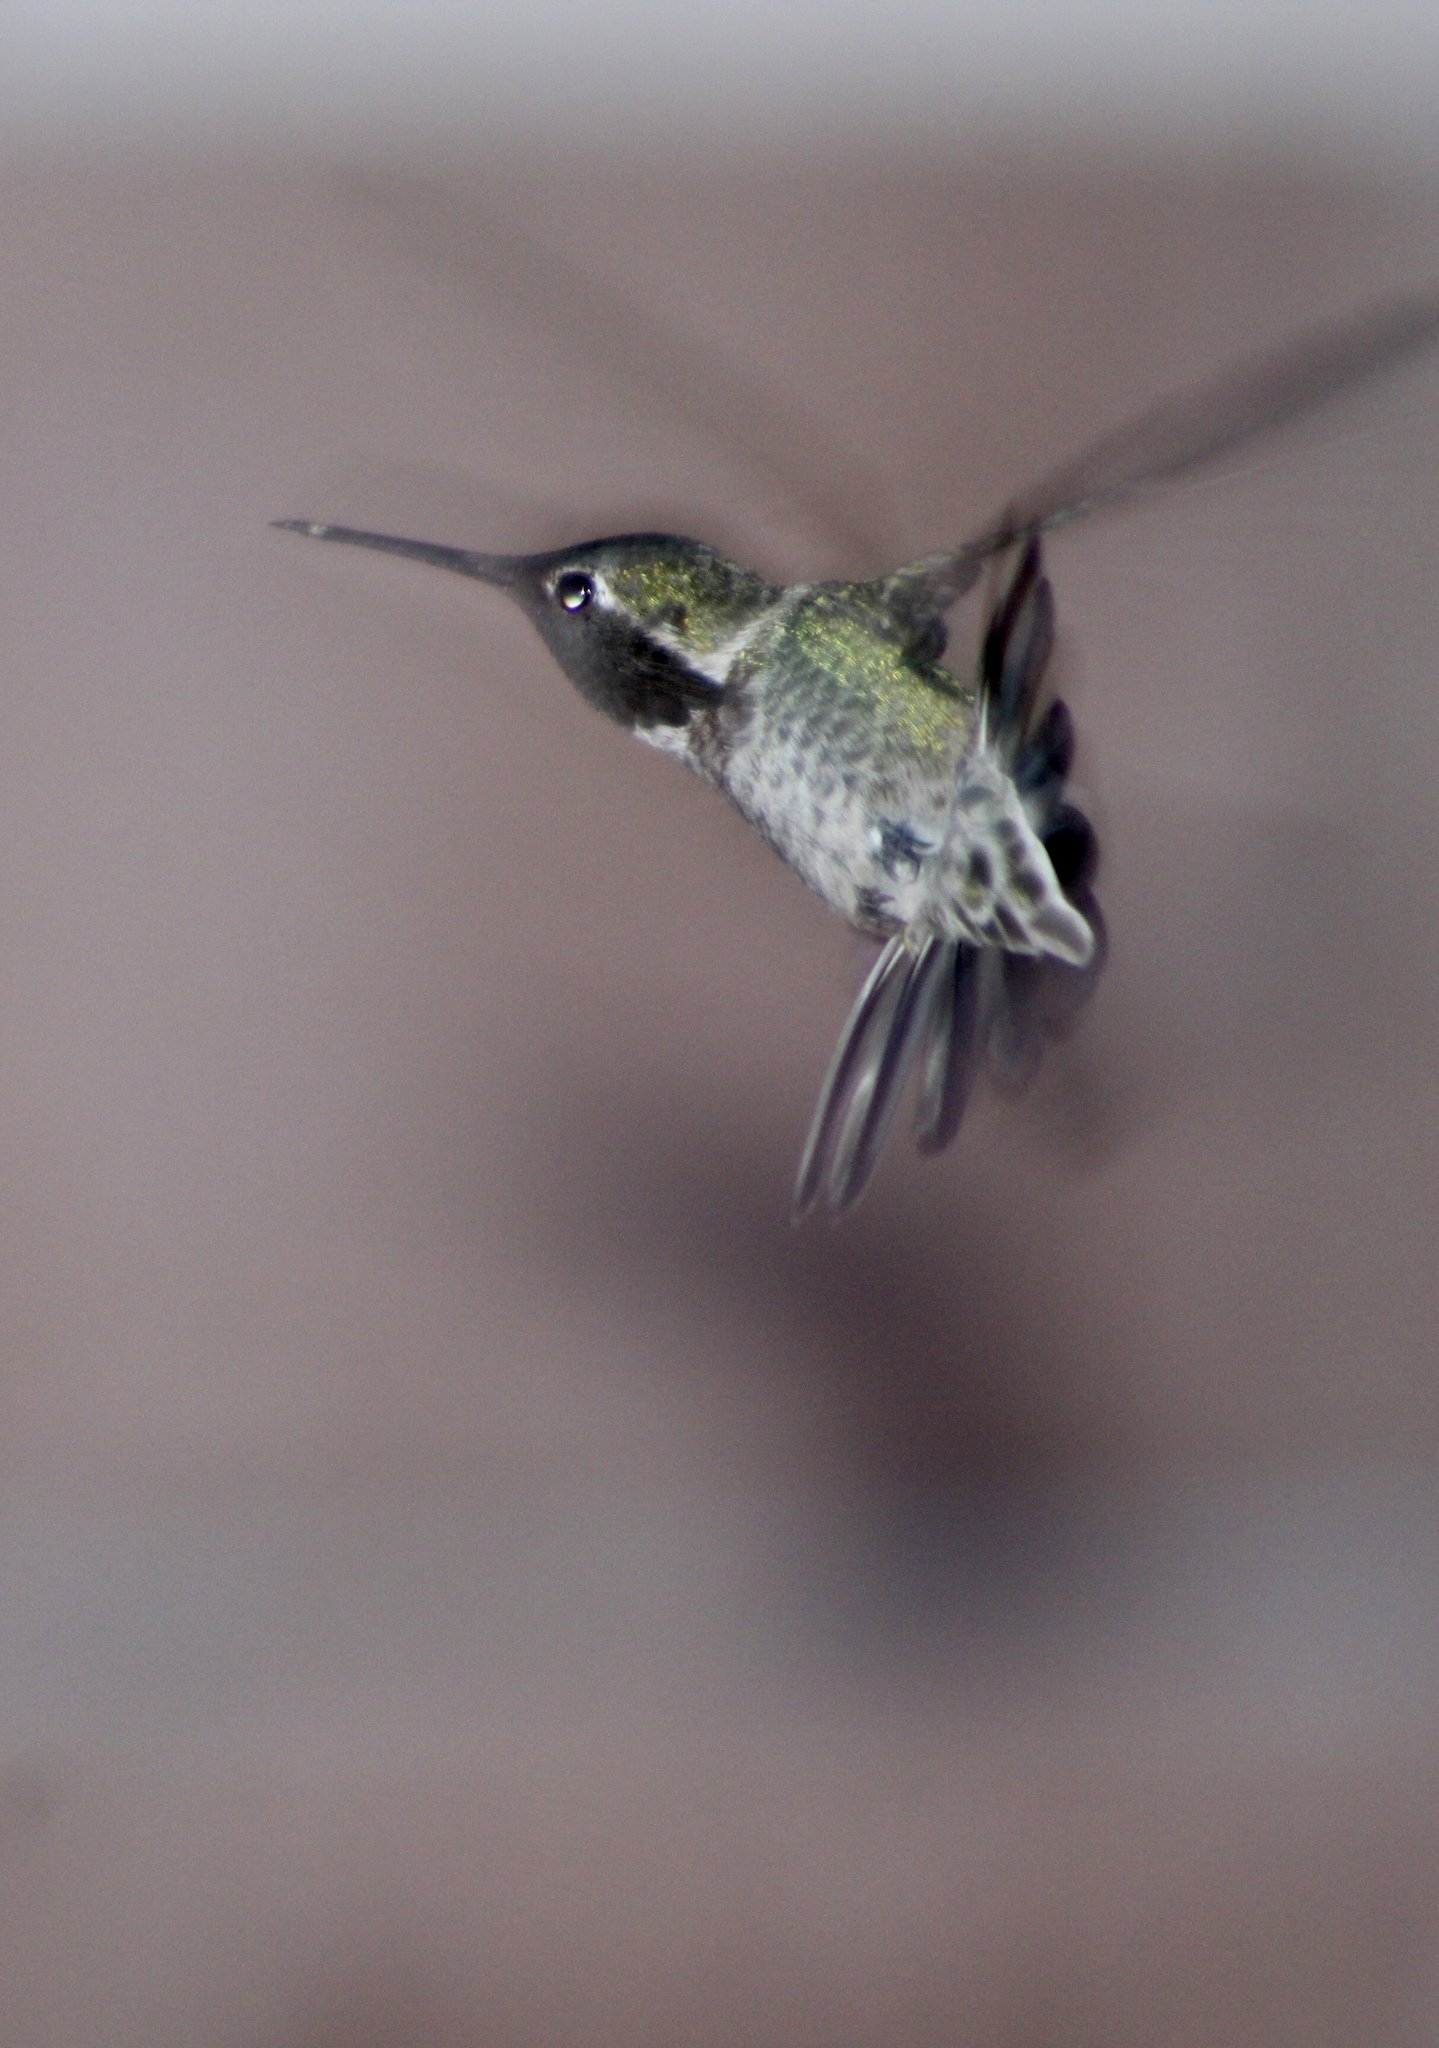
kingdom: Animalia
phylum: Chordata
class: Aves
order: Apodiformes
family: Trochilidae
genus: Calypte
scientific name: Calypte anna
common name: Anna's hummingbird
